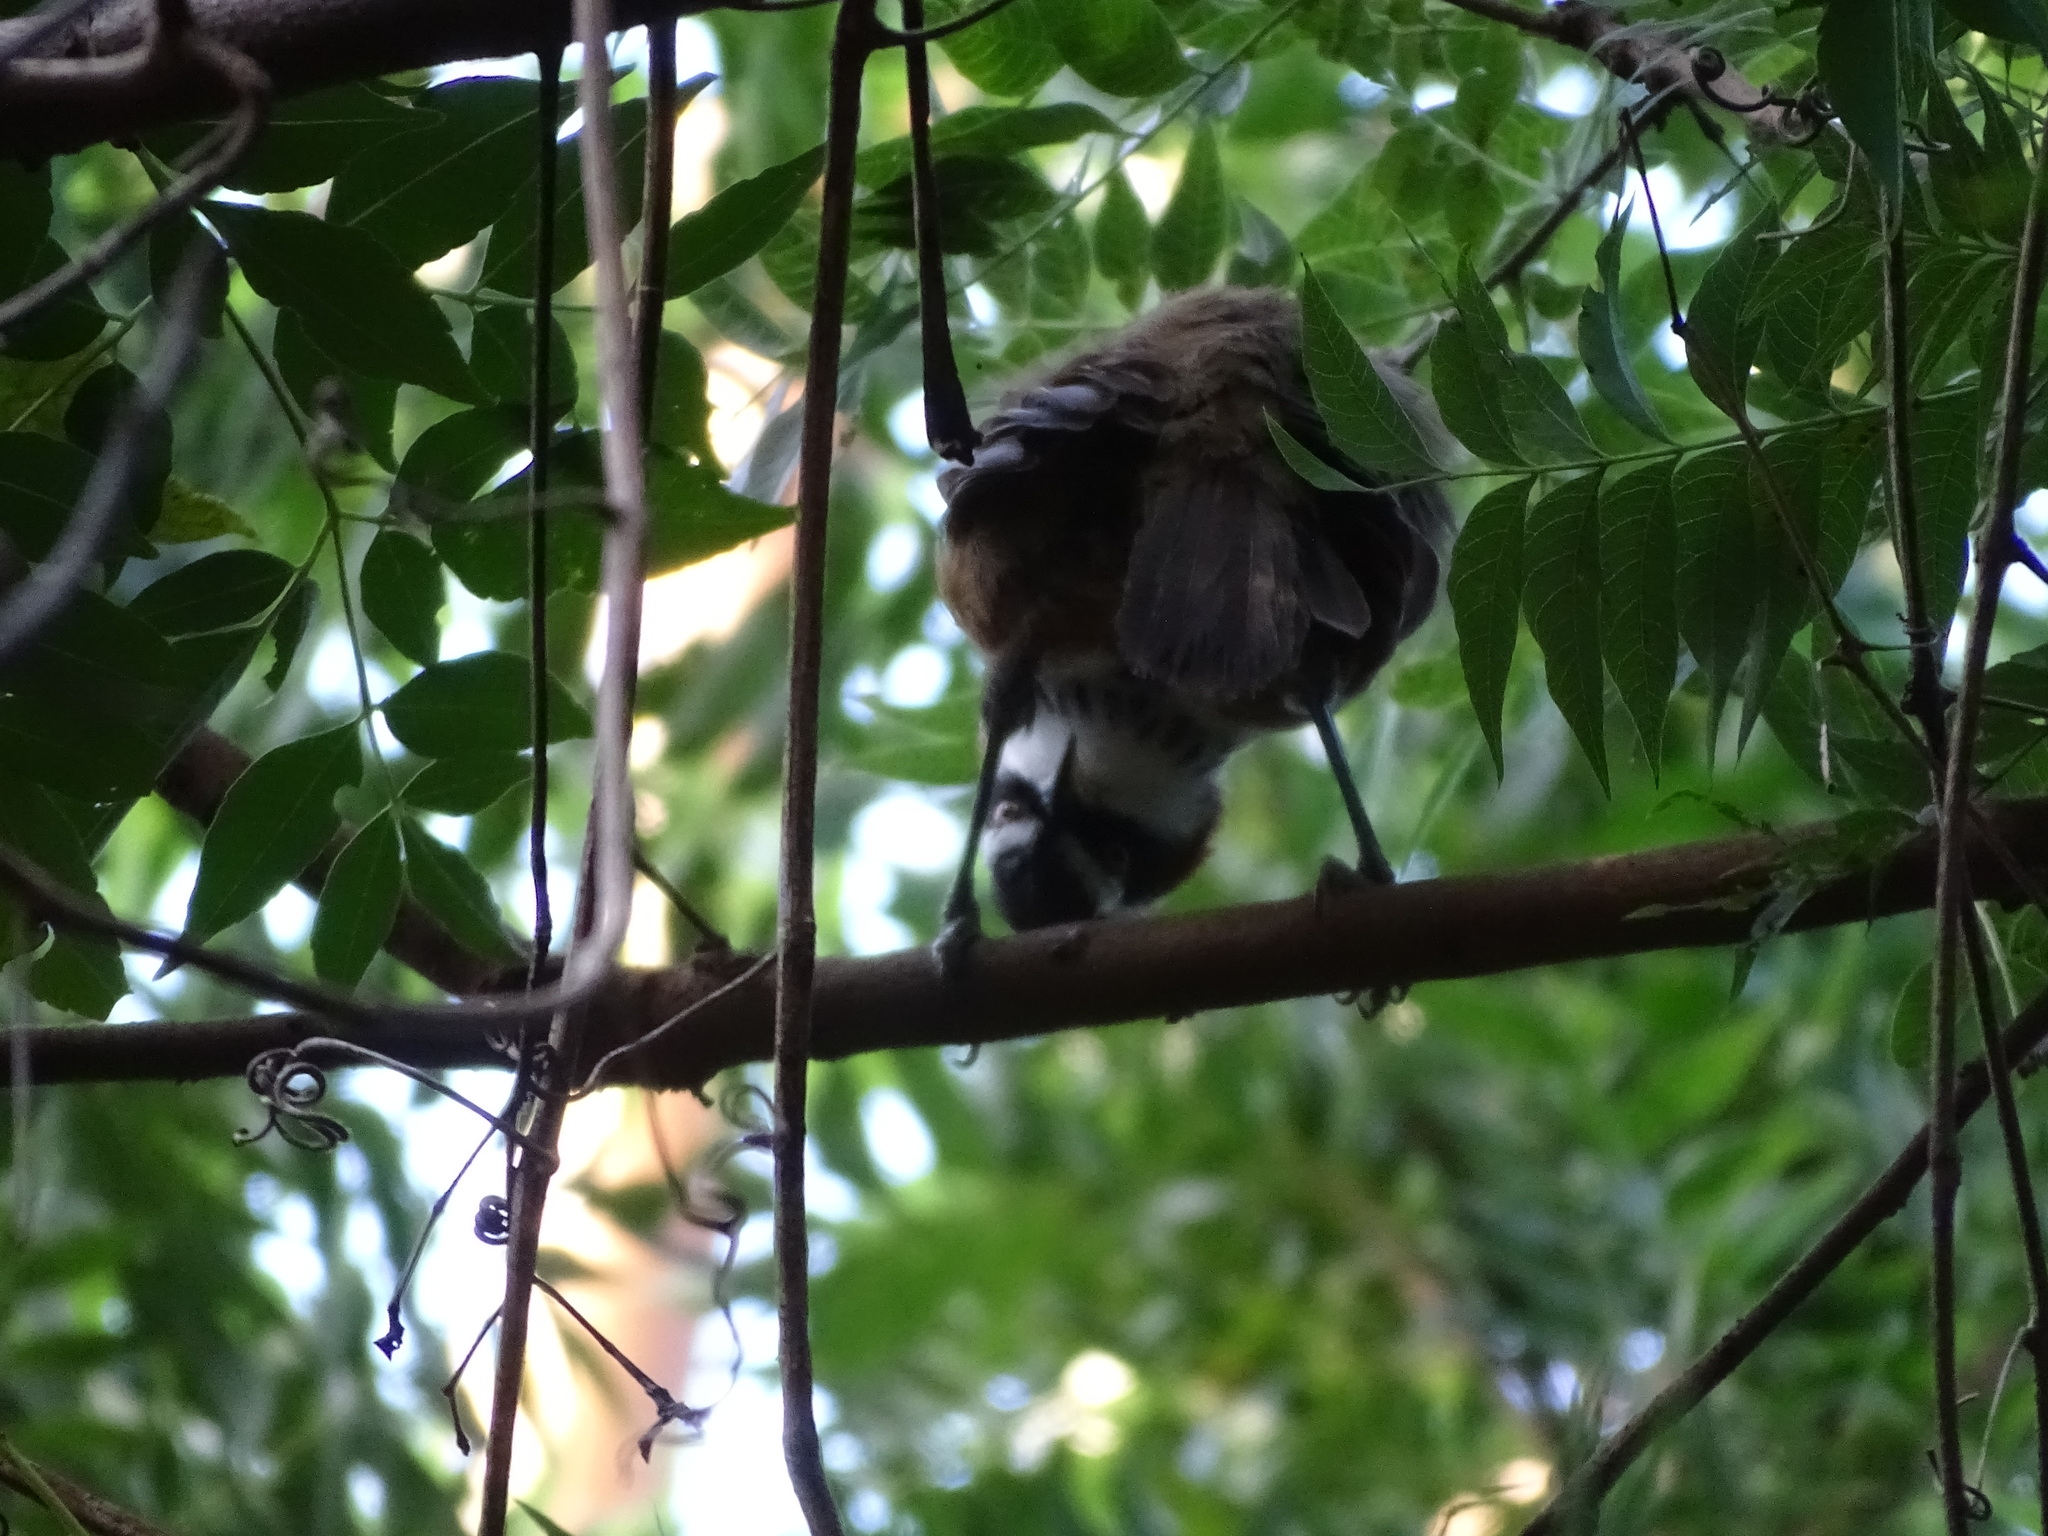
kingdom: Animalia
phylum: Chordata
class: Aves
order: Passeriformes
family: Timaliidae
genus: Pomatorhinus
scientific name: Pomatorhinus musicus
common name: Taiwan scimitar-babbler
